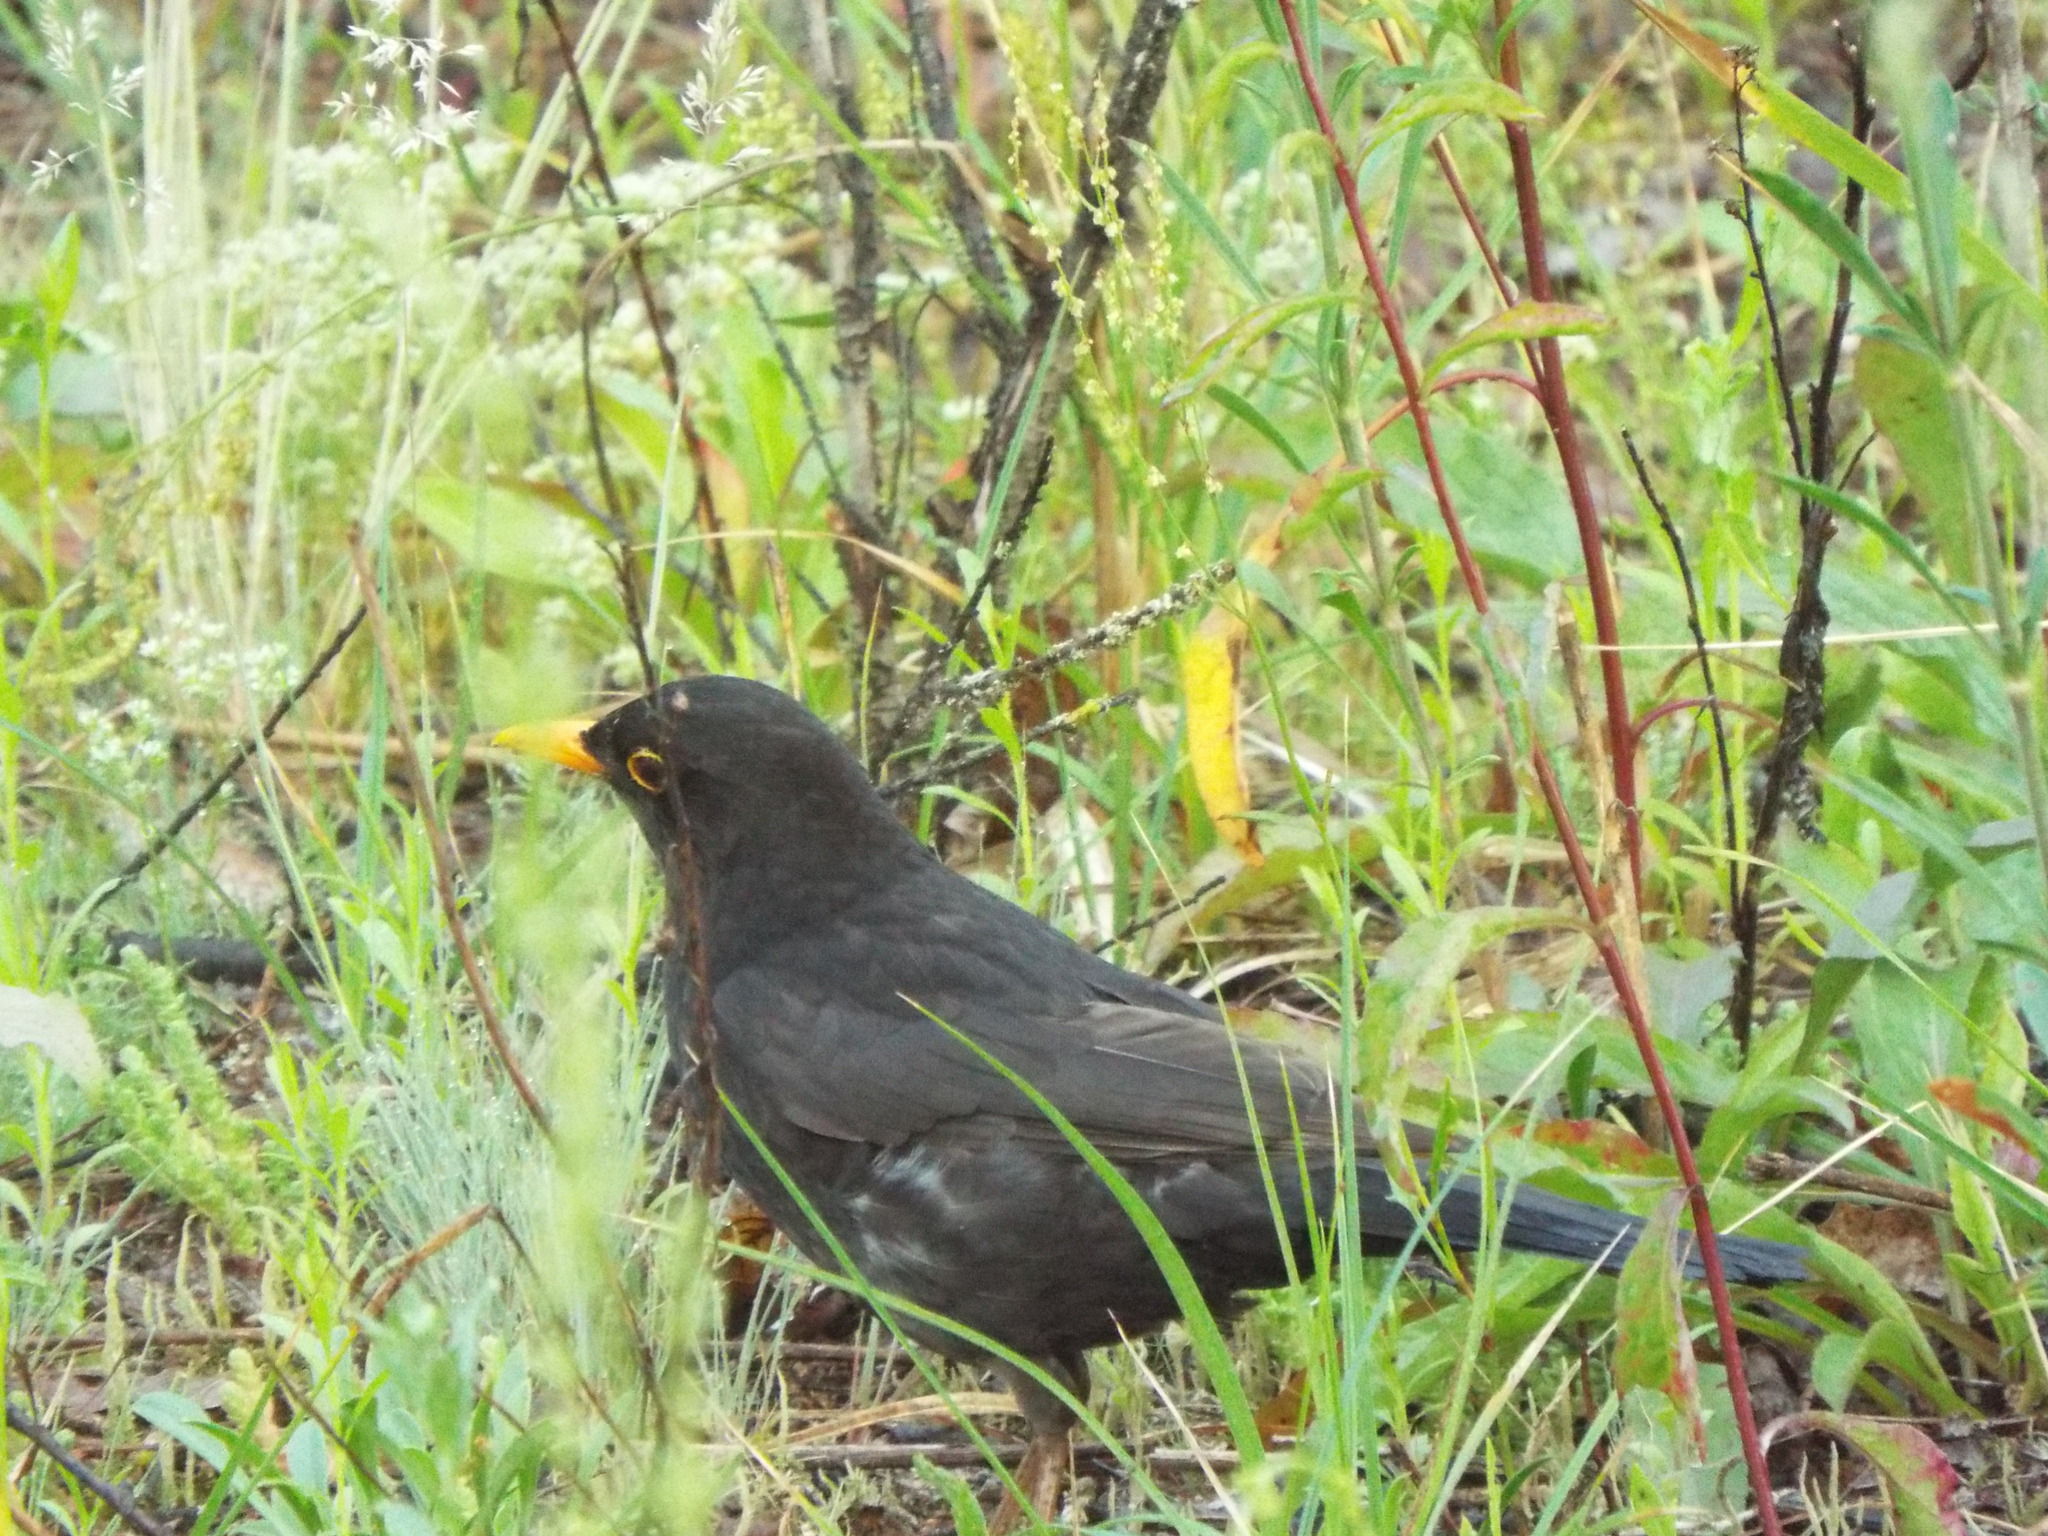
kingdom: Animalia
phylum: Chordata
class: Aves
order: Passeriformes
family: Turdidae
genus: Turdus
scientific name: Turdus merula
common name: Common blackbird
